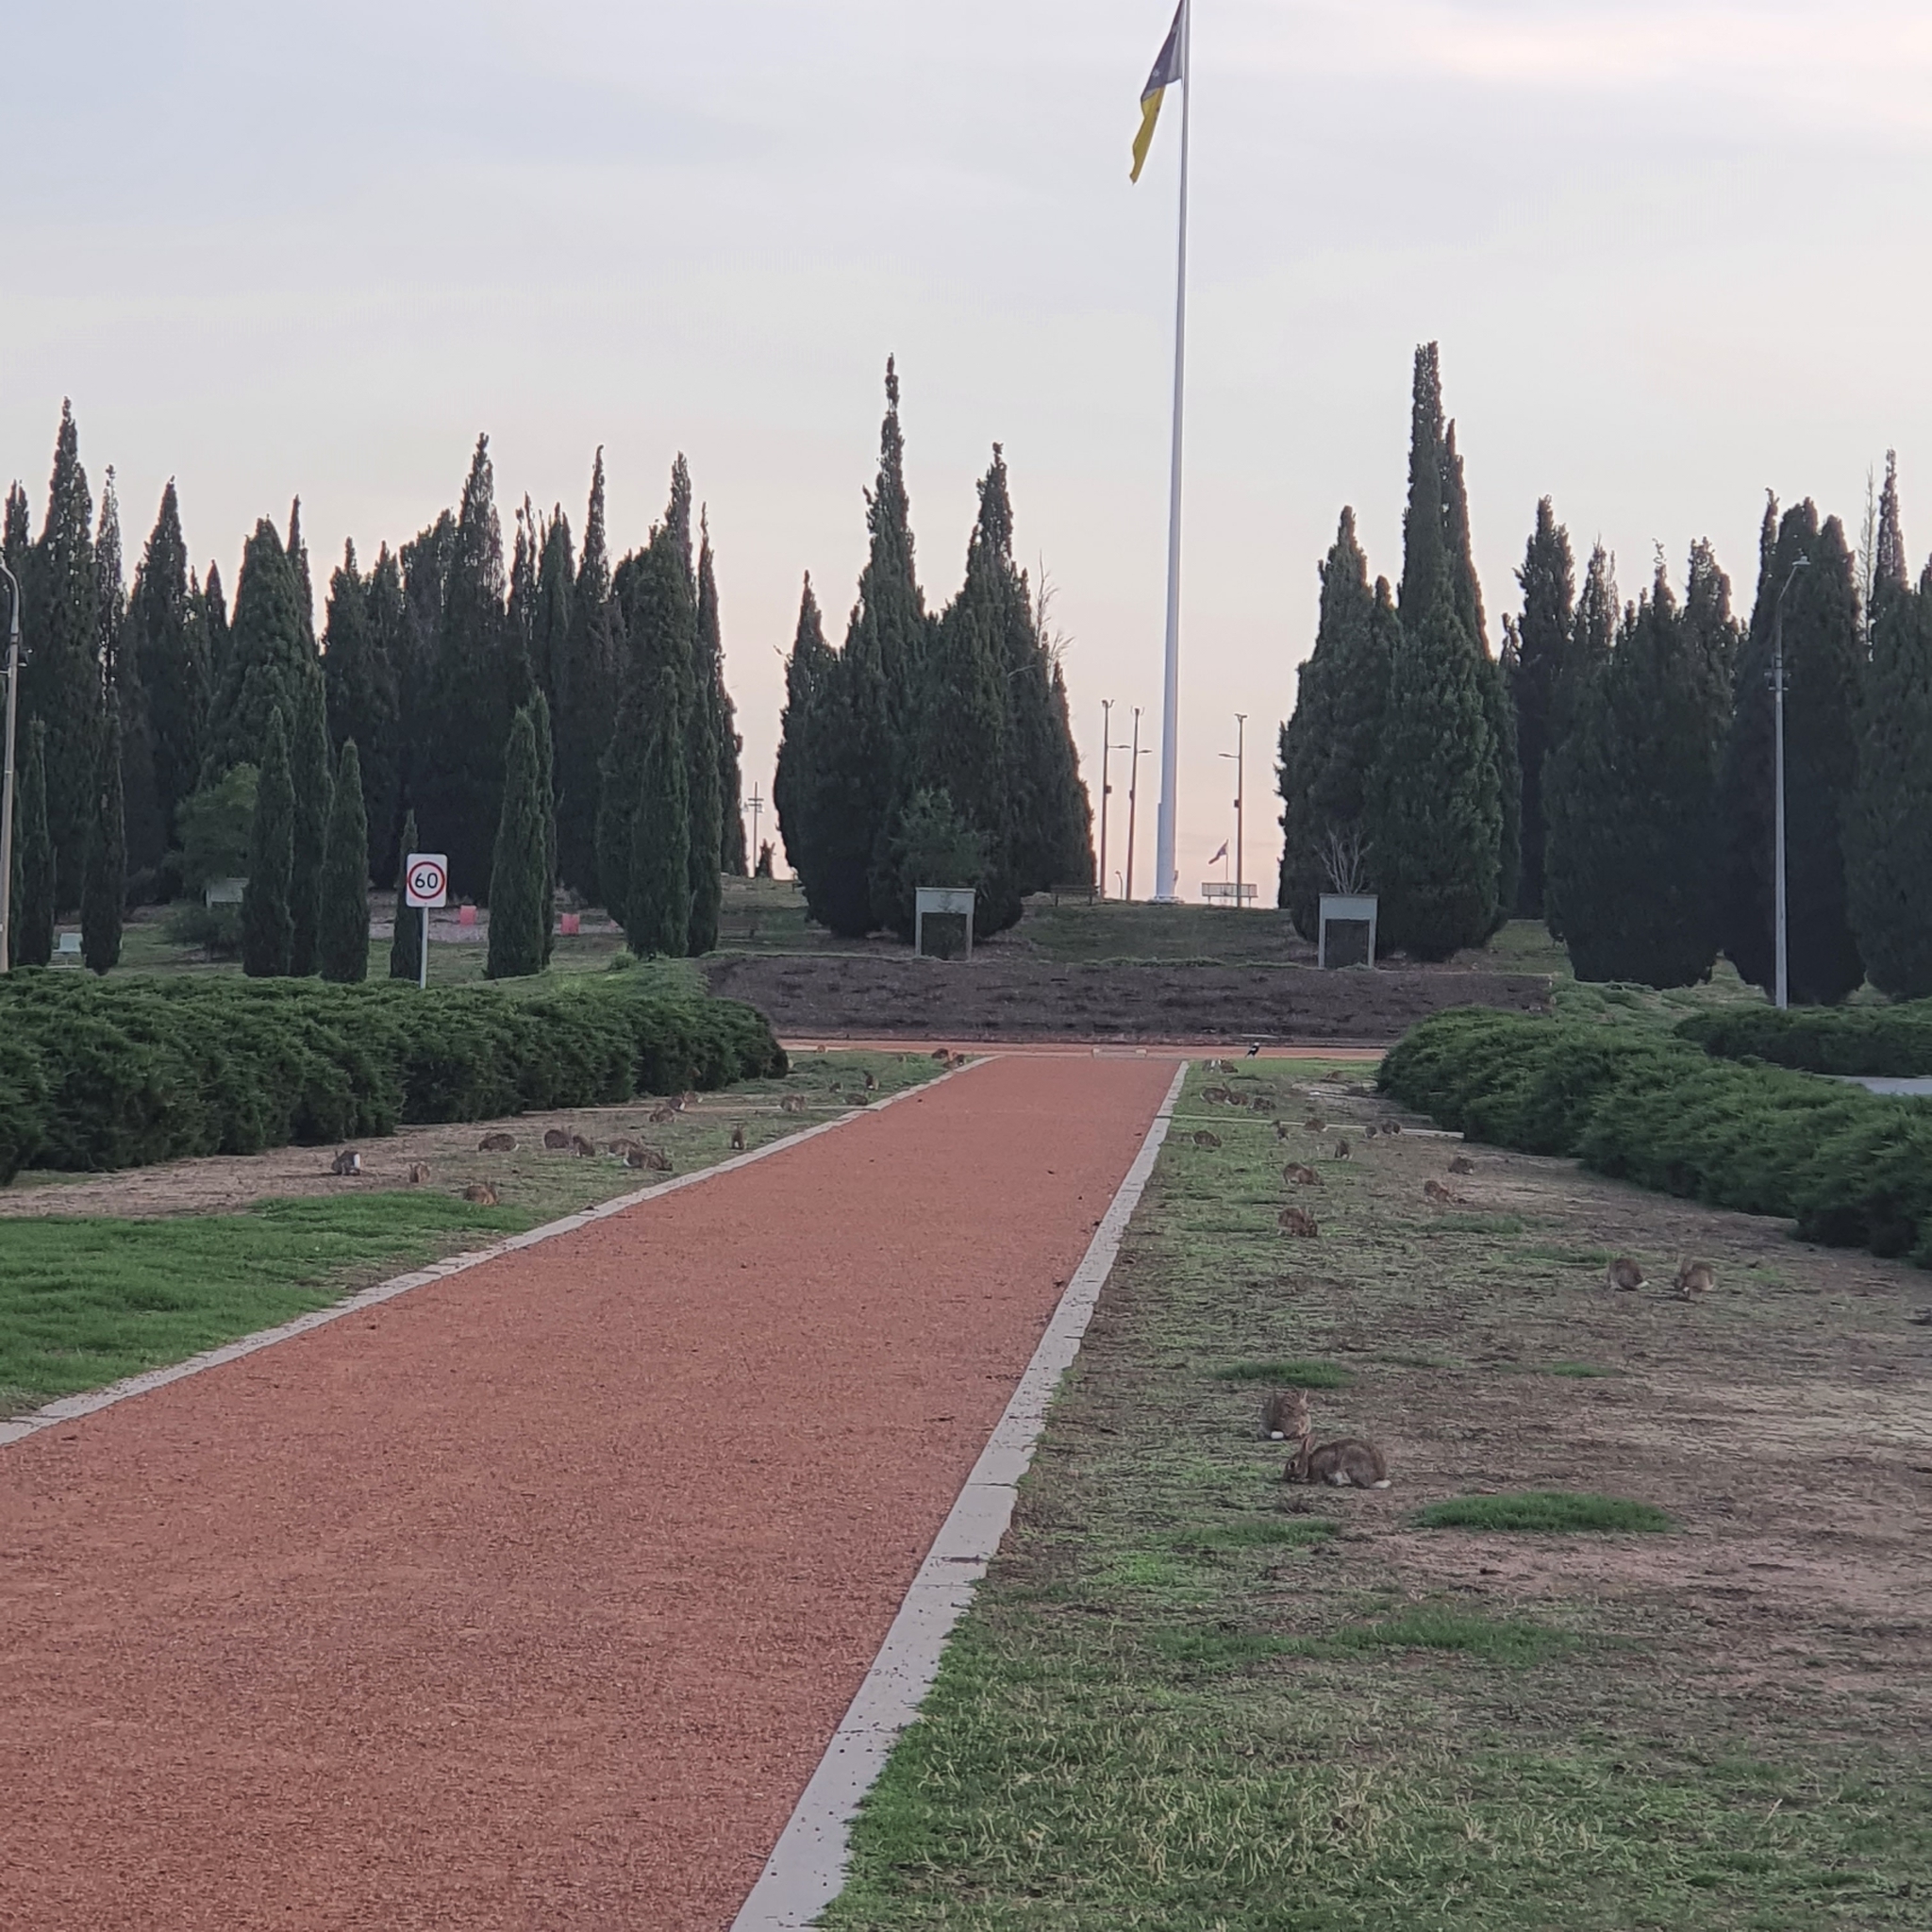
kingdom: Animalia
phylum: Chordata
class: Mammalia
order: Lagomorpha
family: Leporidae
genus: Oryctolagus
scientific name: Oryctolagus cuniculus
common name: European rabbit
